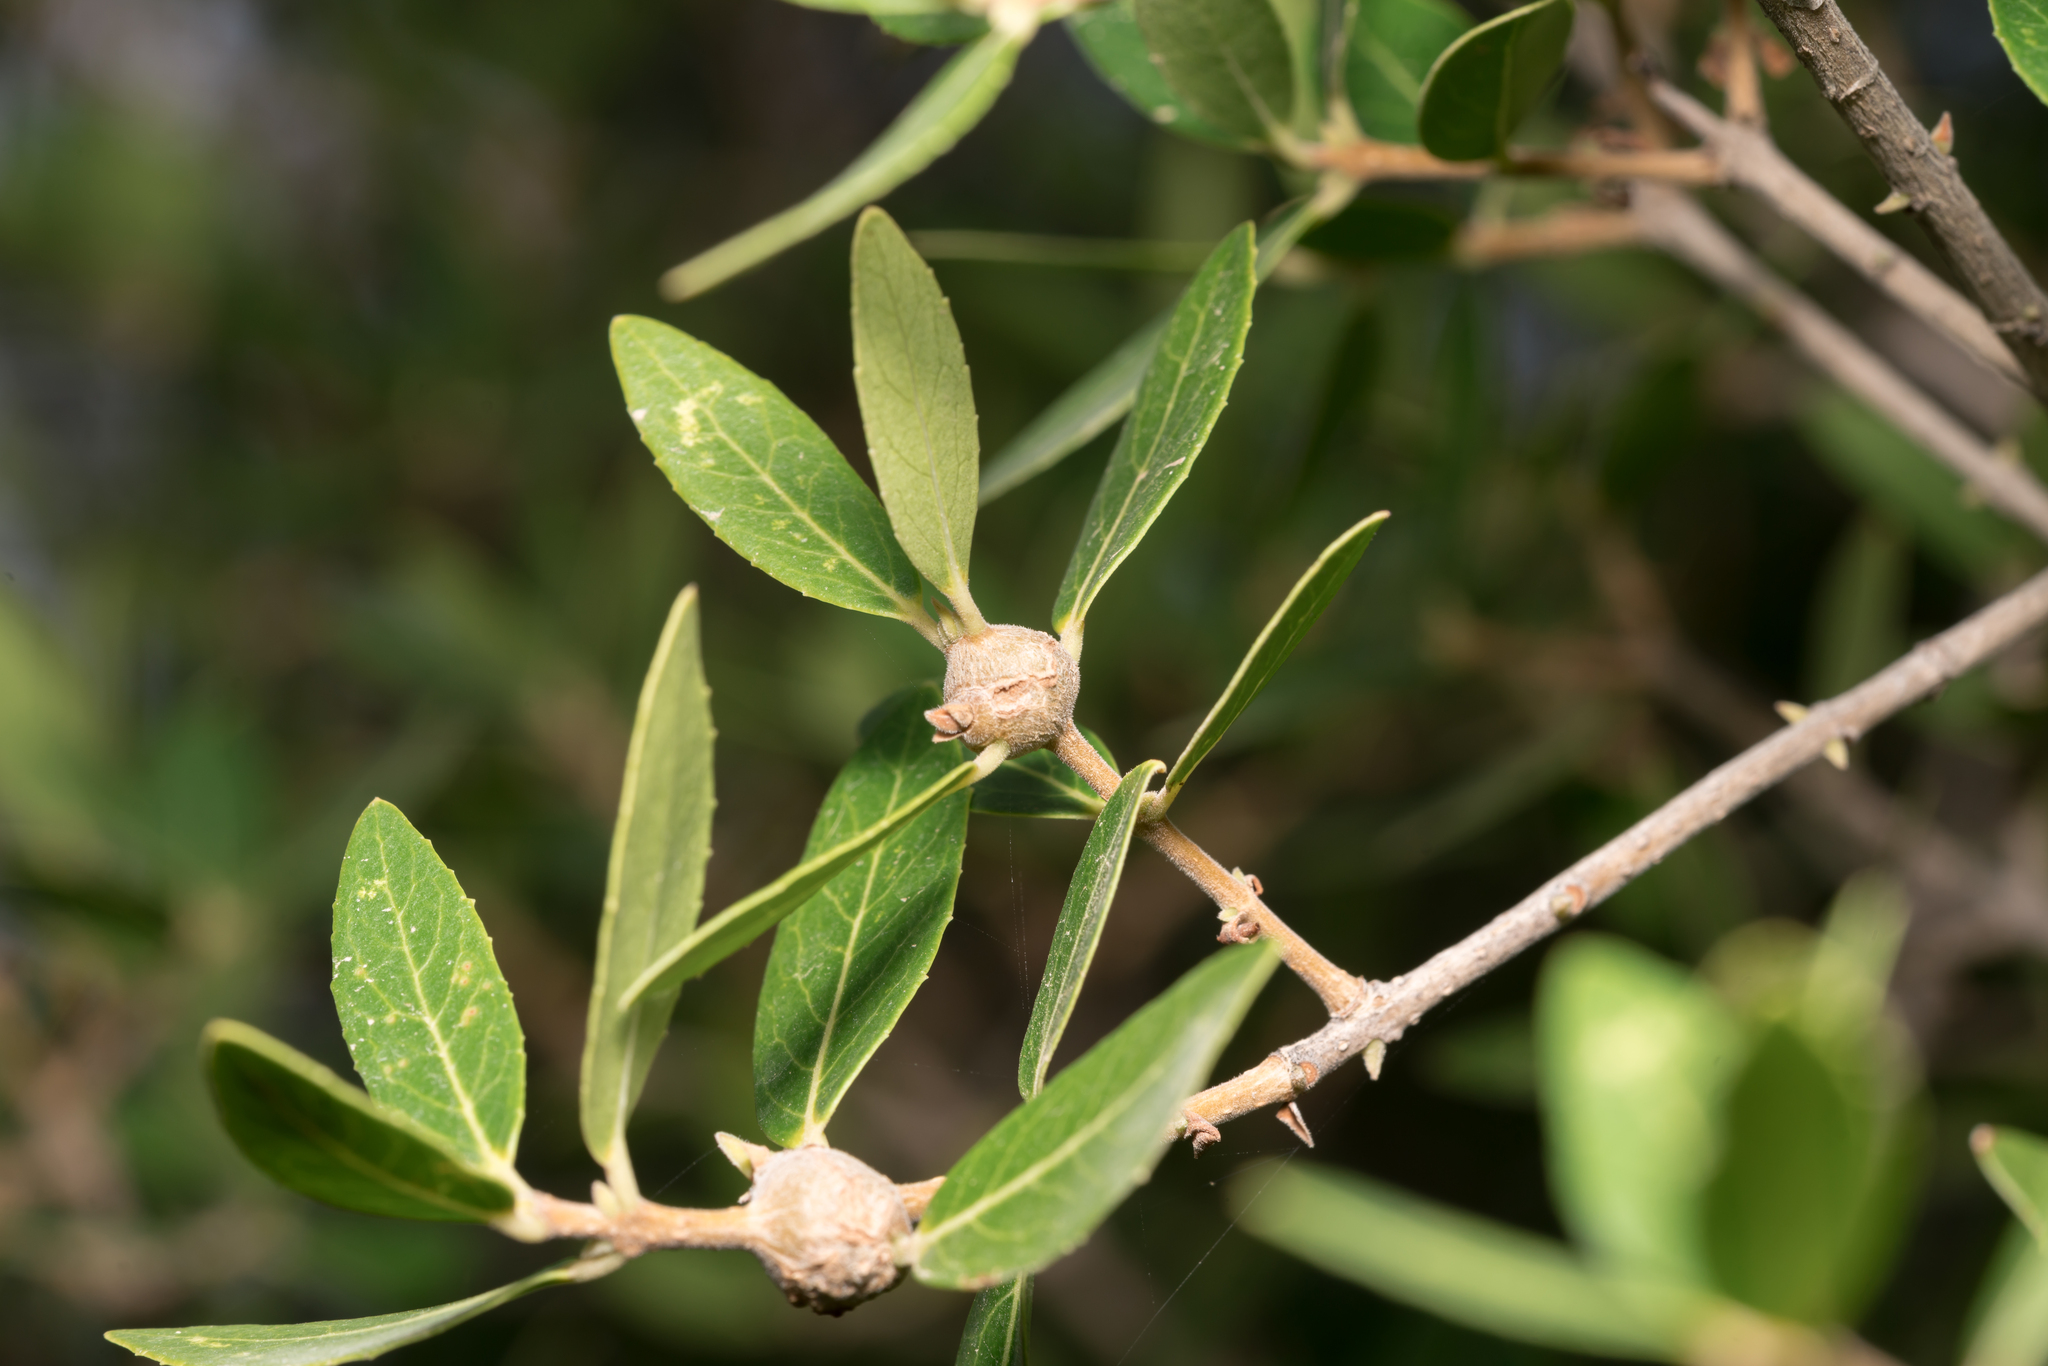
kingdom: Animalia
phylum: Arthropoda
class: Insecta
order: Diptera
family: Cecidomyiidae
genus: Dasineura
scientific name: Dasineura rufescens
